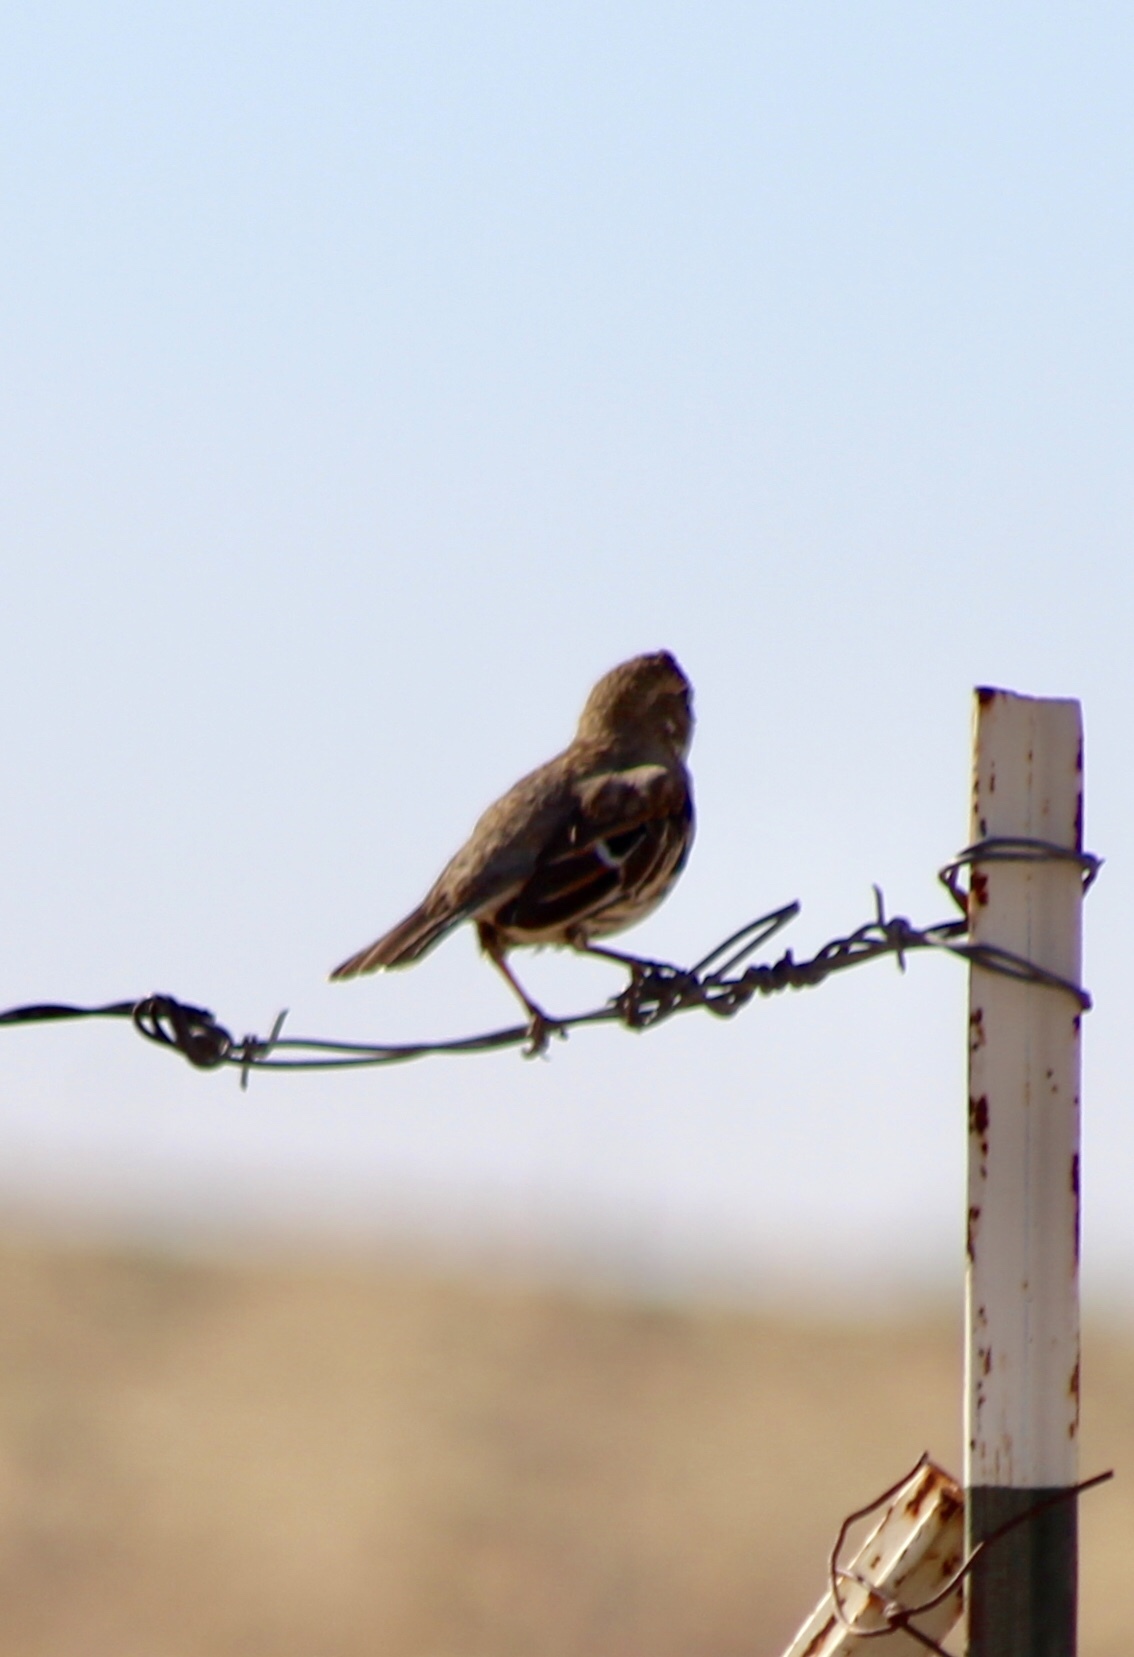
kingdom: Animalia
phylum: Chordata
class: Aves
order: Passeriformes
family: Passerellidae
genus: Calamospiza
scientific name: Calamospiza melanocorys
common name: Lark bunting
